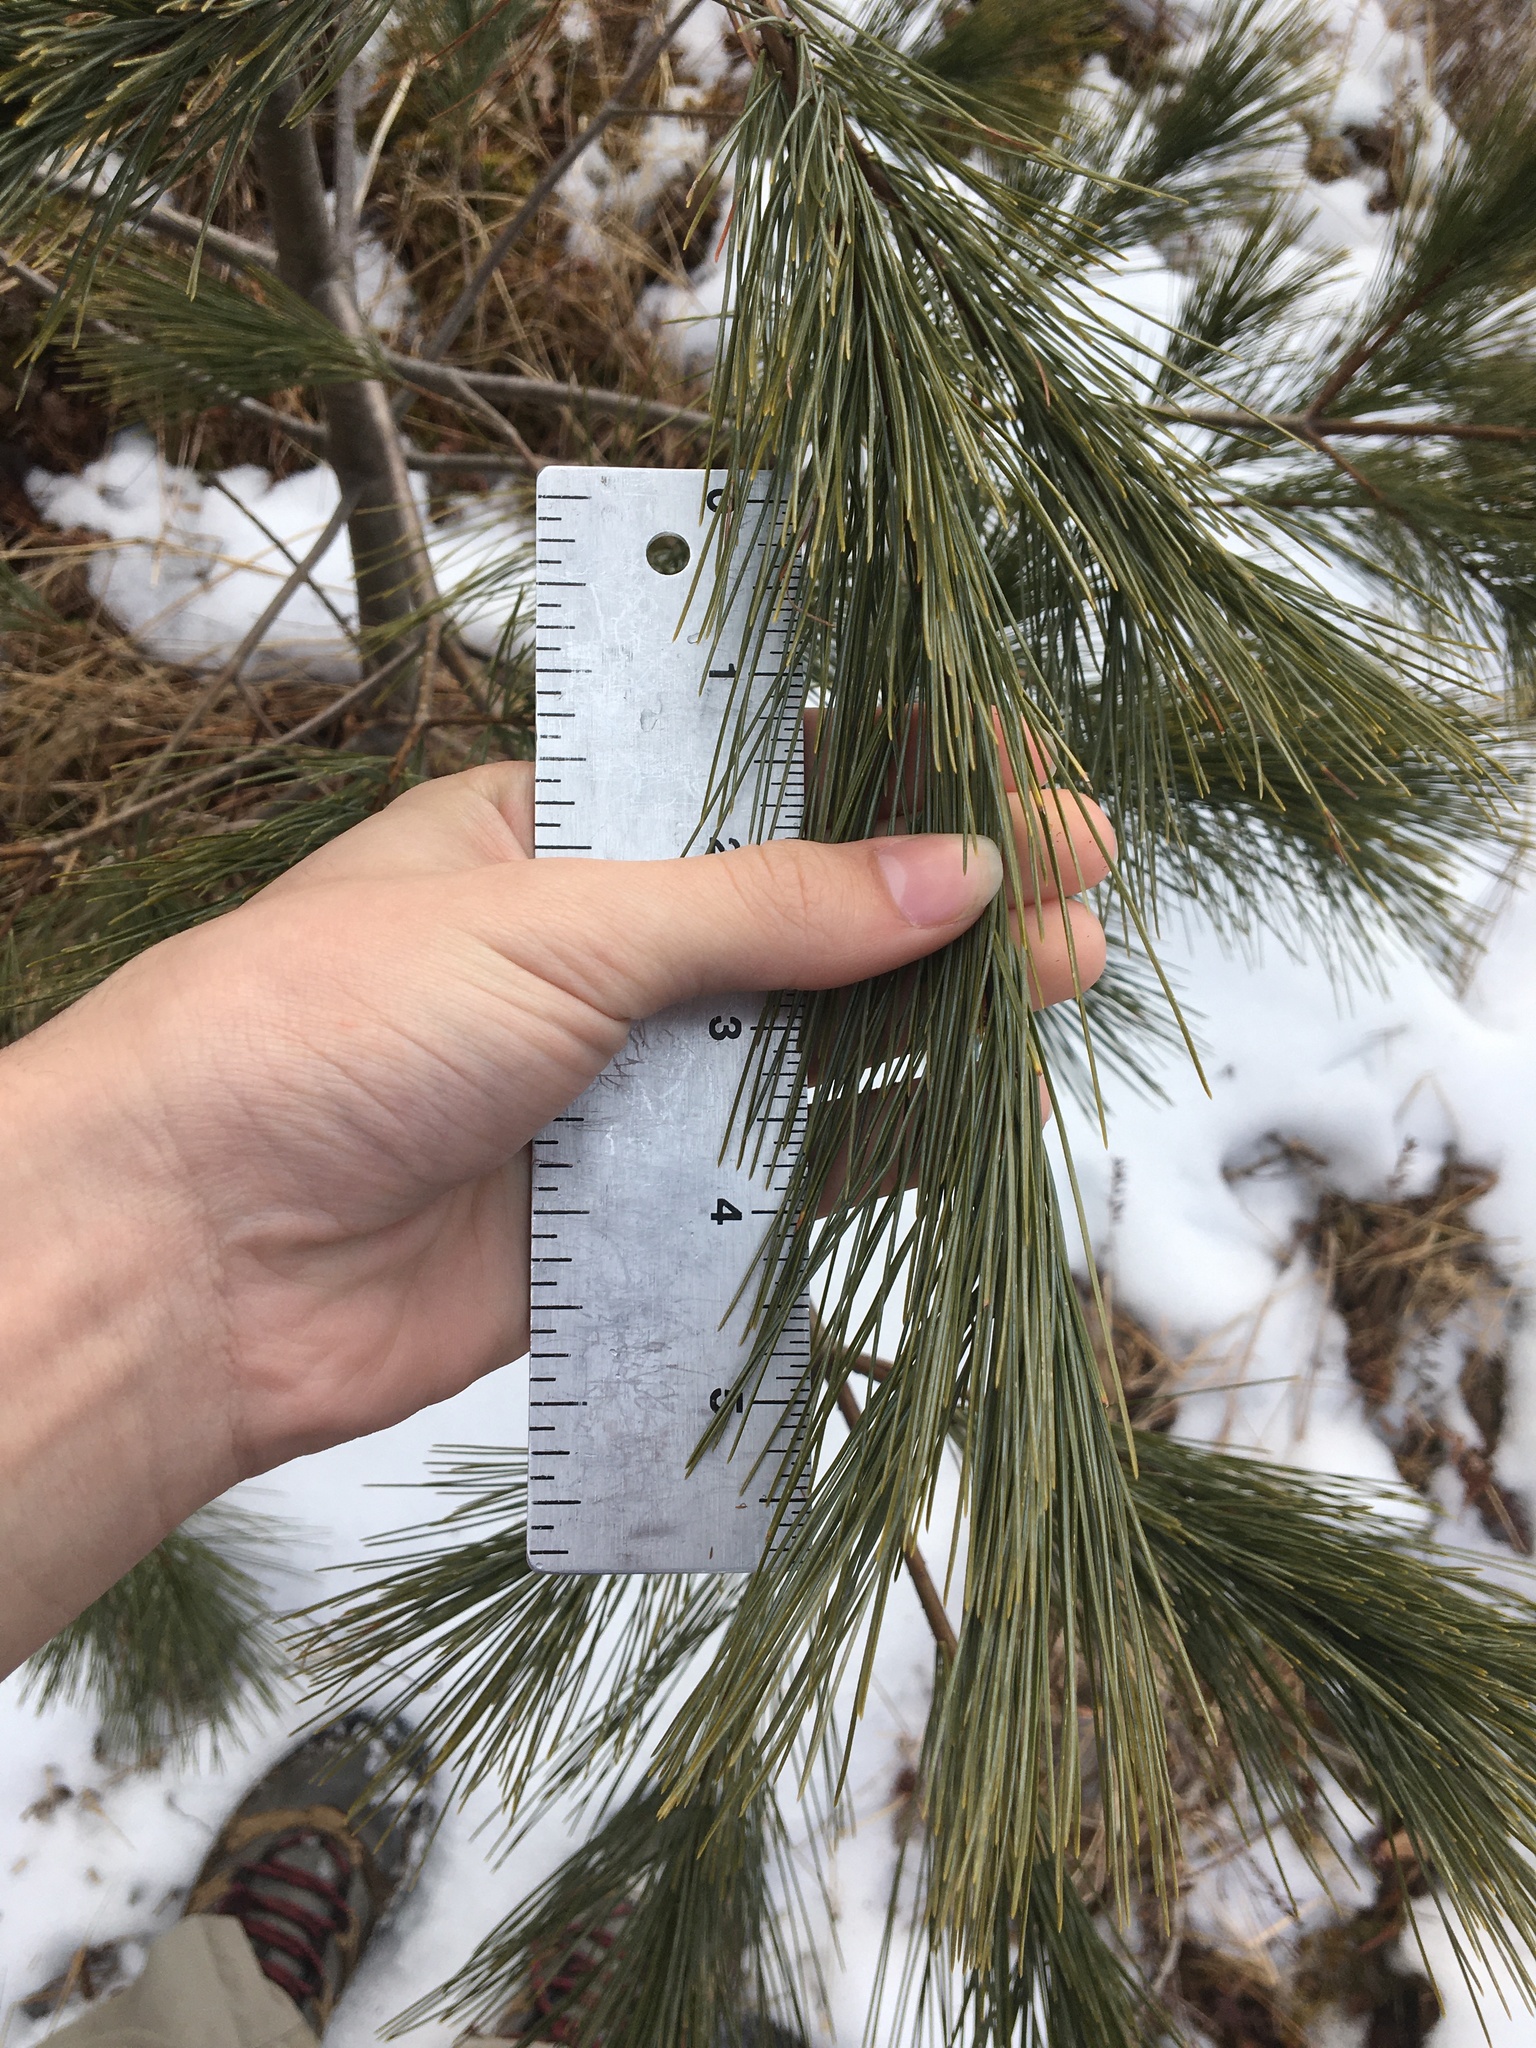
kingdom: Plantae
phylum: Tracheophyta
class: Pinopsida
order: Pinales
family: Pinaceae
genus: Pinus
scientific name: Pinus strobus
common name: Weymouth pine
